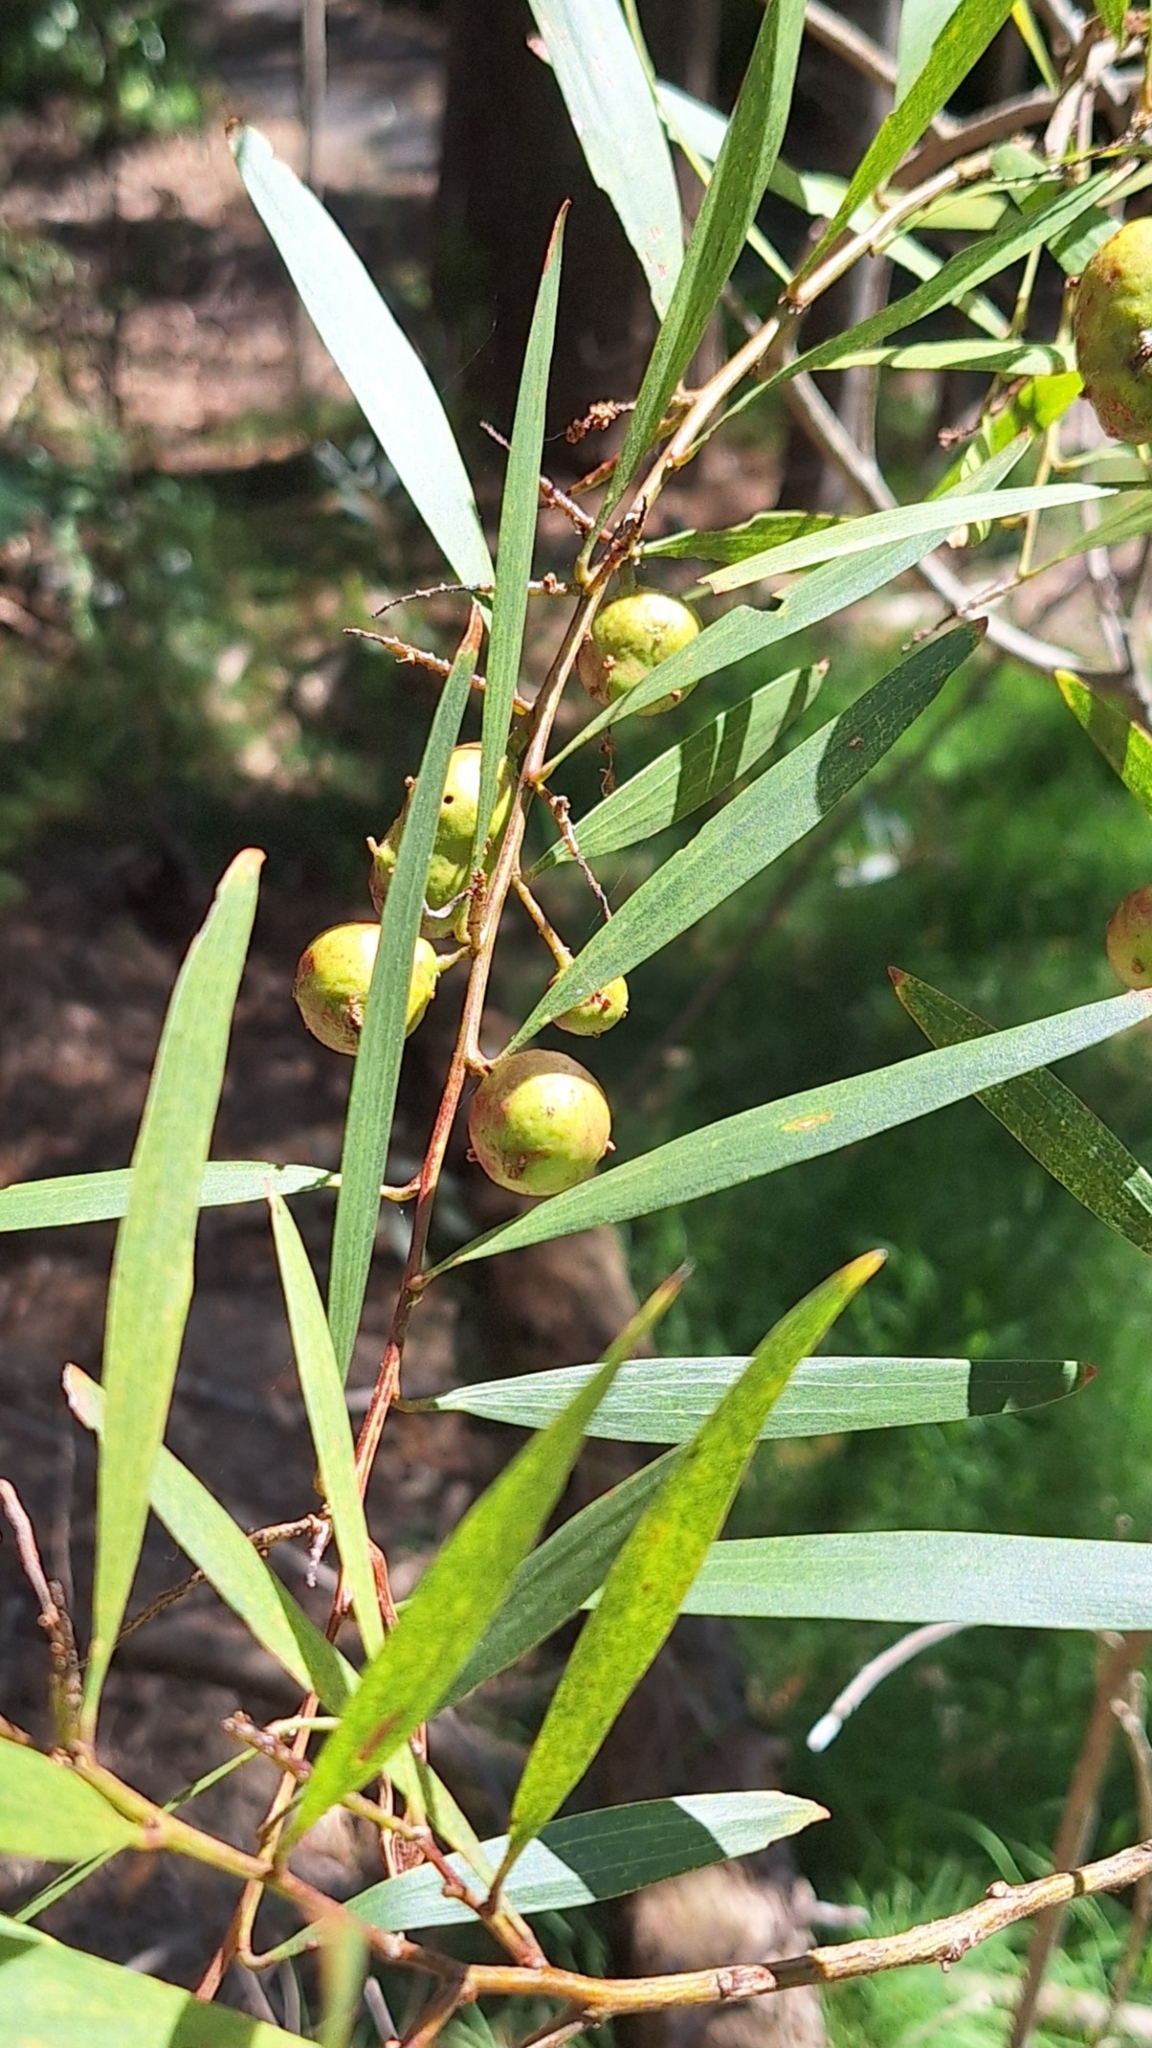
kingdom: Plantae
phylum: Tracheophyta
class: Magnoliopsida
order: Fabales
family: Fabaceae
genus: Acacia
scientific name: Acacia longifolia
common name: Sydney golden wattle
